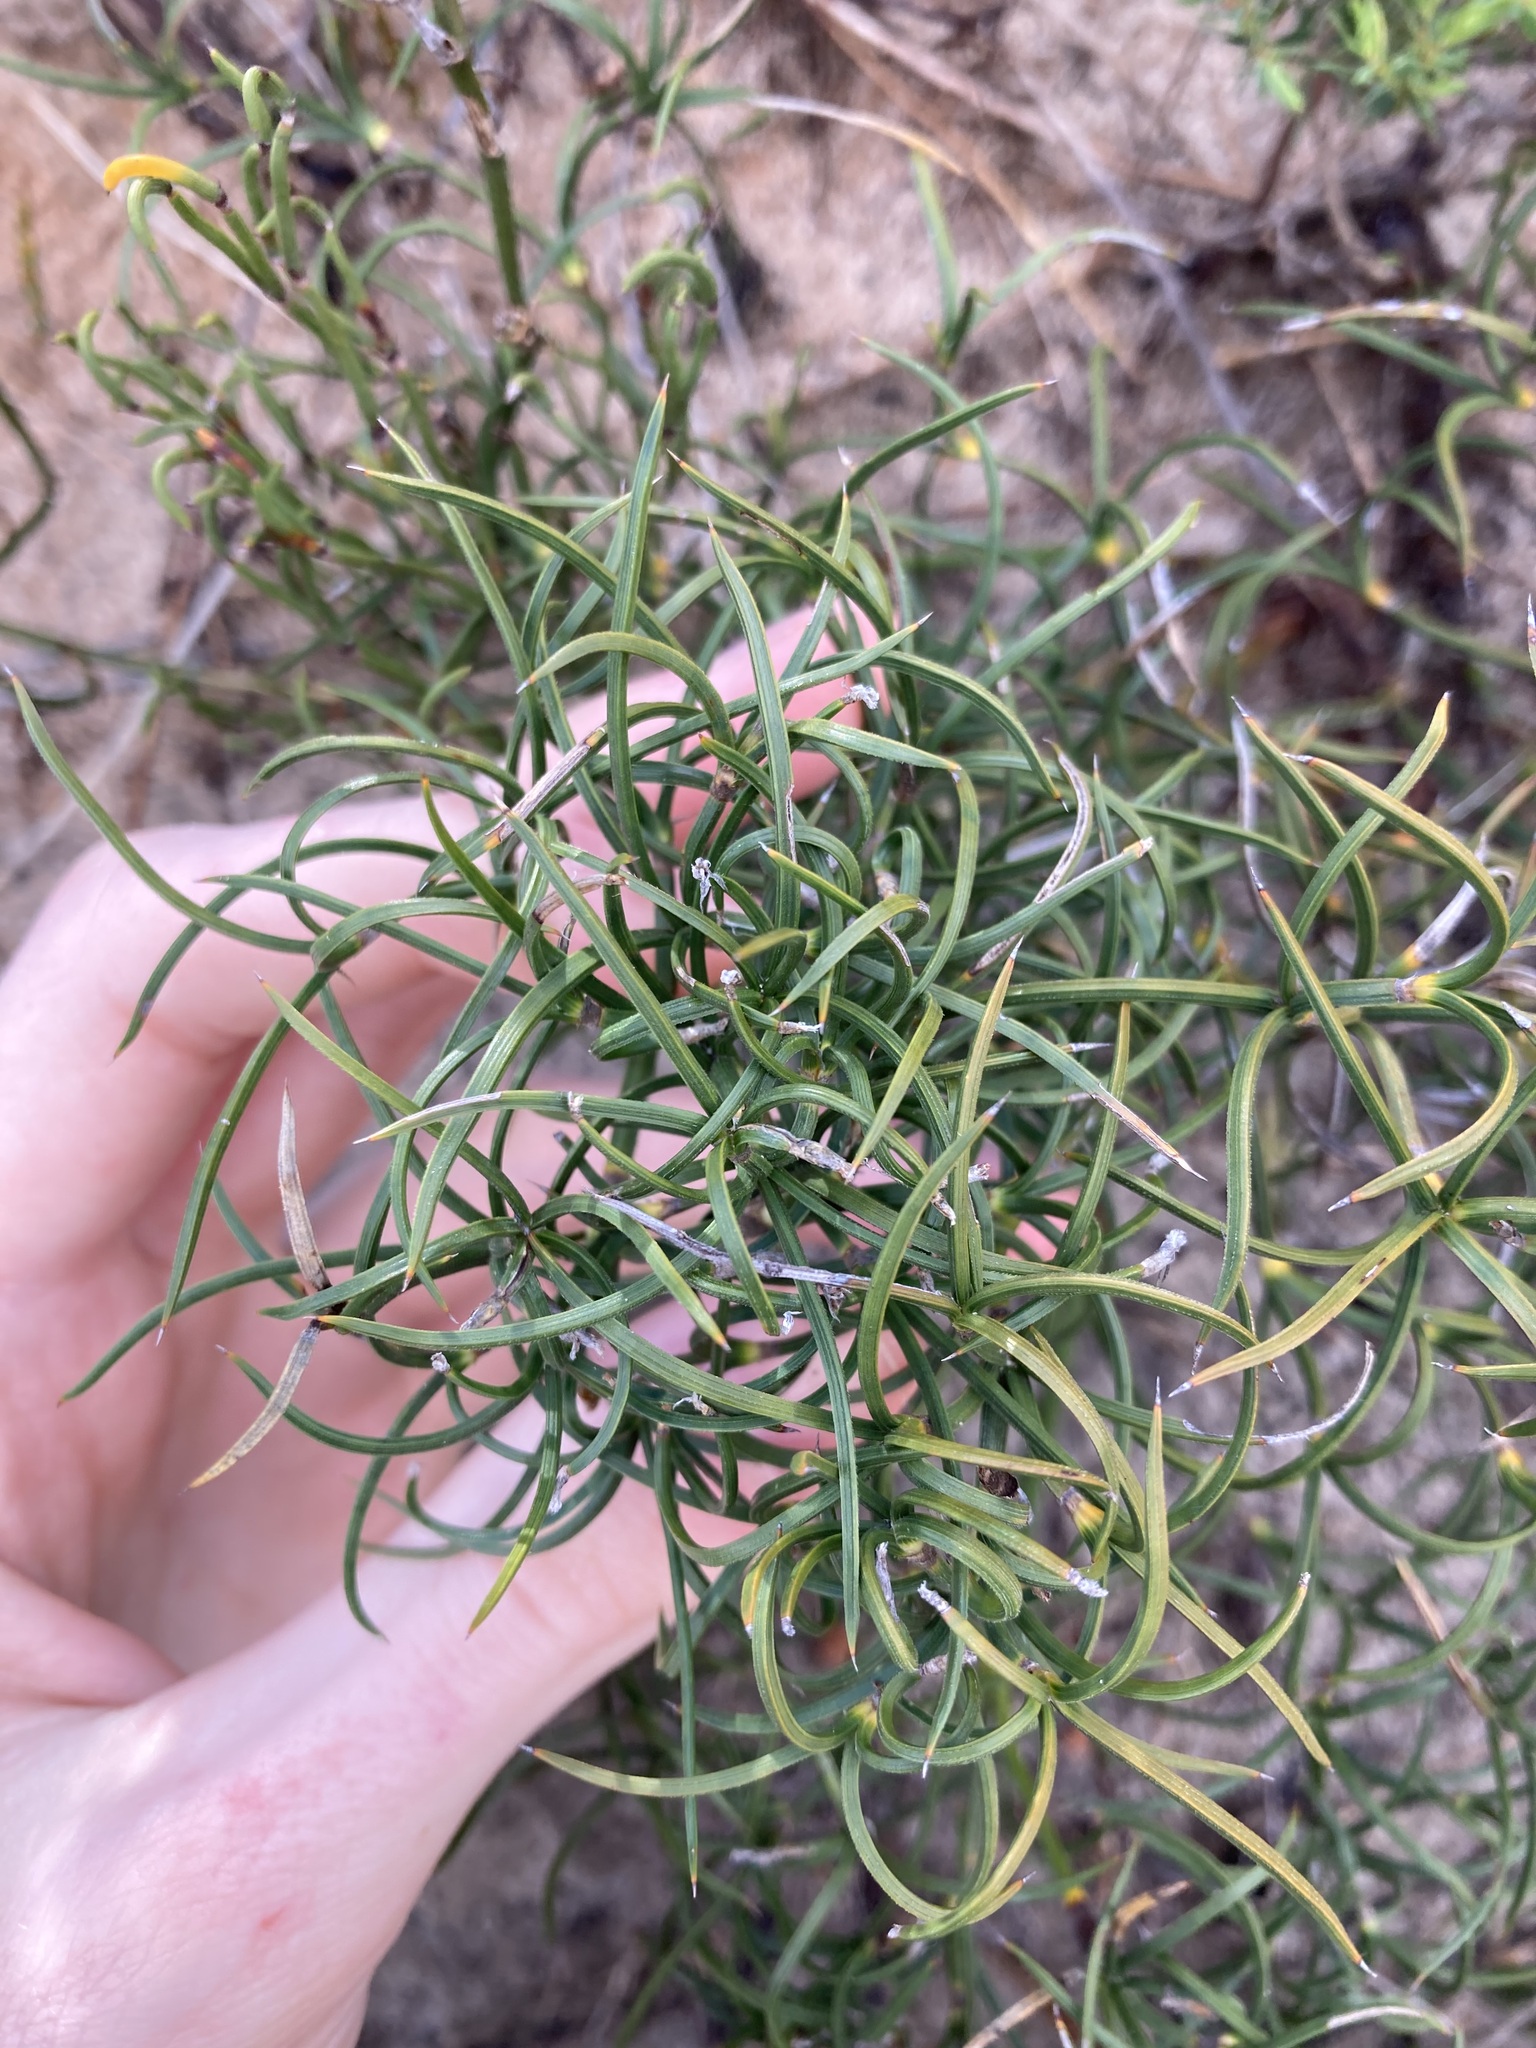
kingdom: Plantae
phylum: Tracheophyta
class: Liliopsida
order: Poales
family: Cyperaceae
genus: Caustis
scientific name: Caustis dioica
